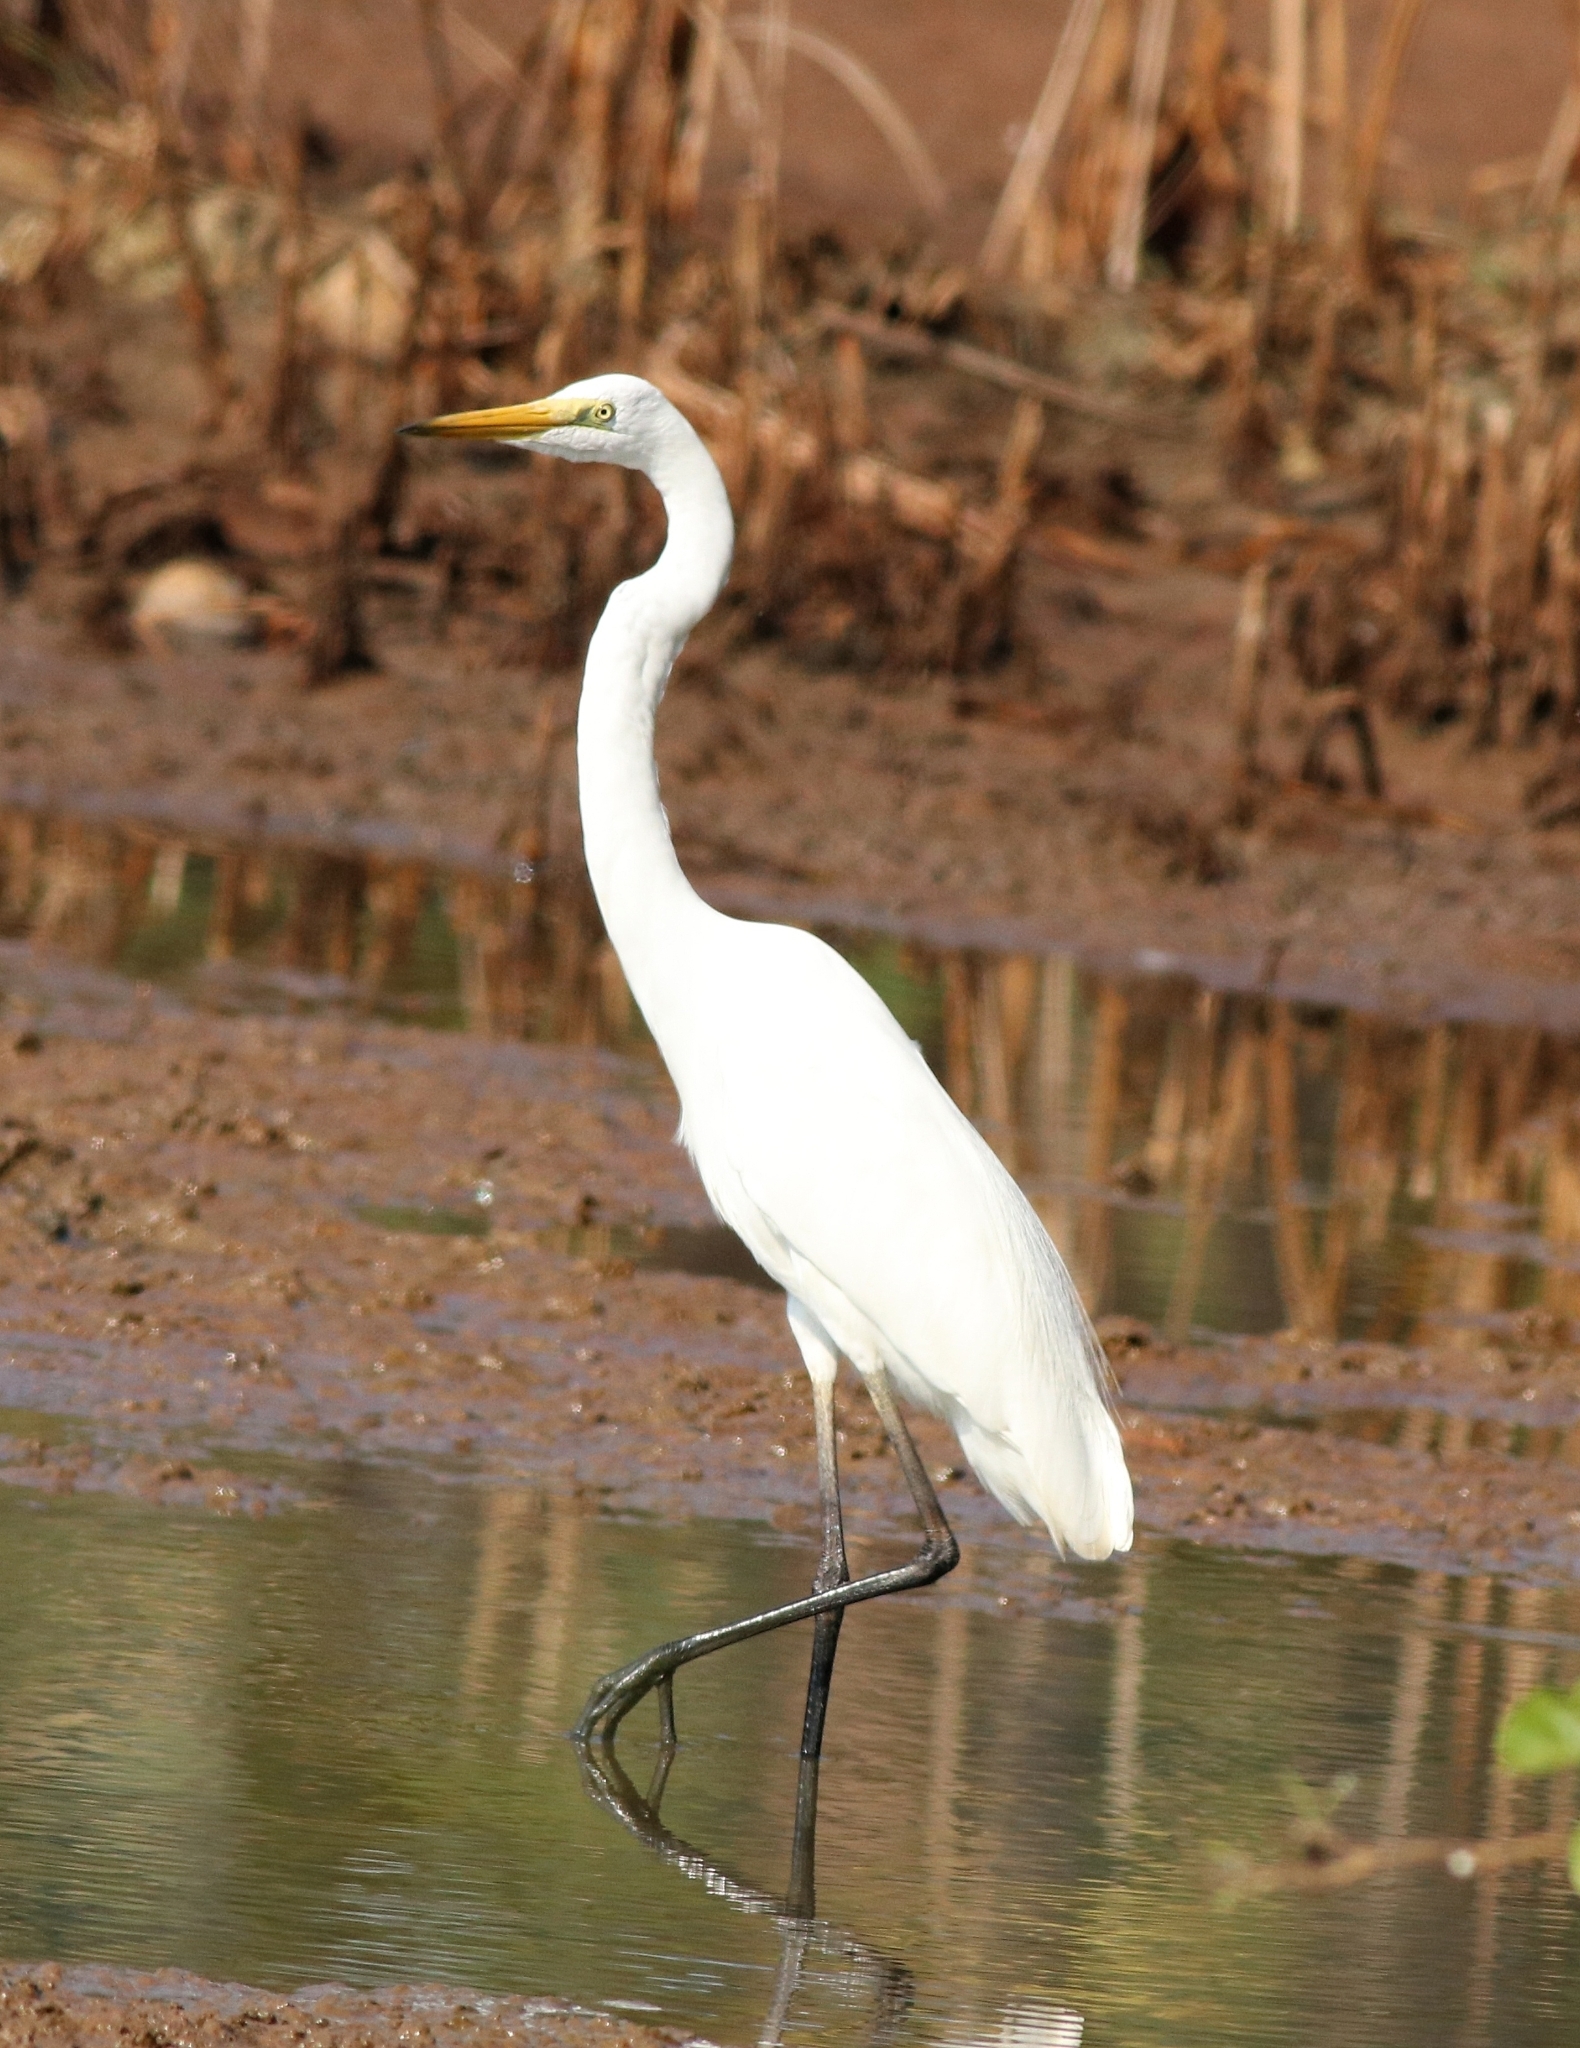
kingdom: Animalia
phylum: Chordata
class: Aves
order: Pelecaniformes
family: Ardeidae
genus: Ardea
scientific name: Ardea alba
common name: Great egret
